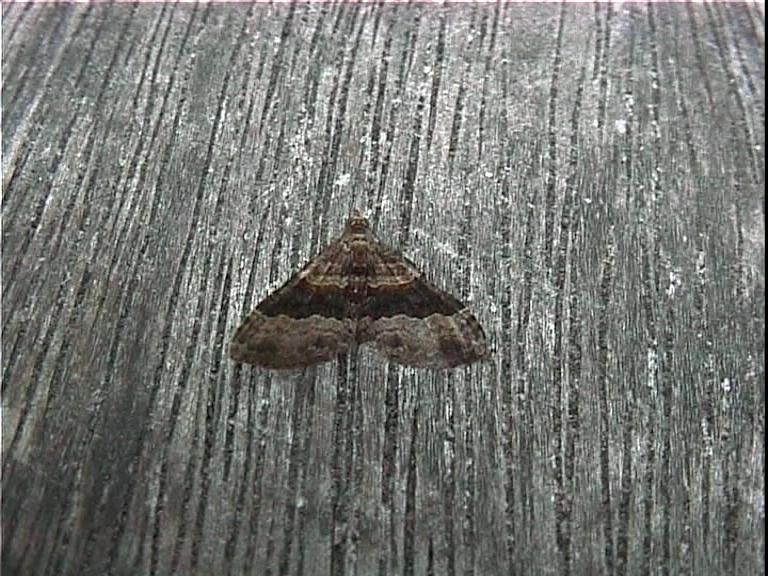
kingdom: Animalia
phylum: Arthropoda
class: Insecta
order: Lepidoptera
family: Geometridae
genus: Epyaxa
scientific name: Epyaxa lucidata
